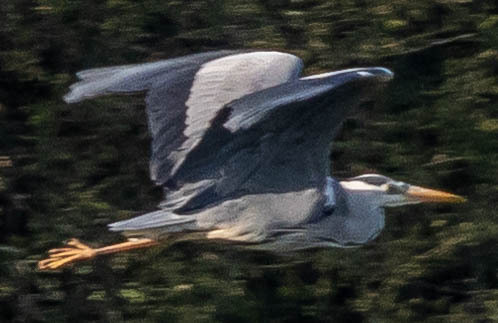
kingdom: Animalia
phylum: Chordata
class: Aves
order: Pelecaniformes
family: Ardeidae
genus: Ardea
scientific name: Ardea cinerea
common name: Grey heron
